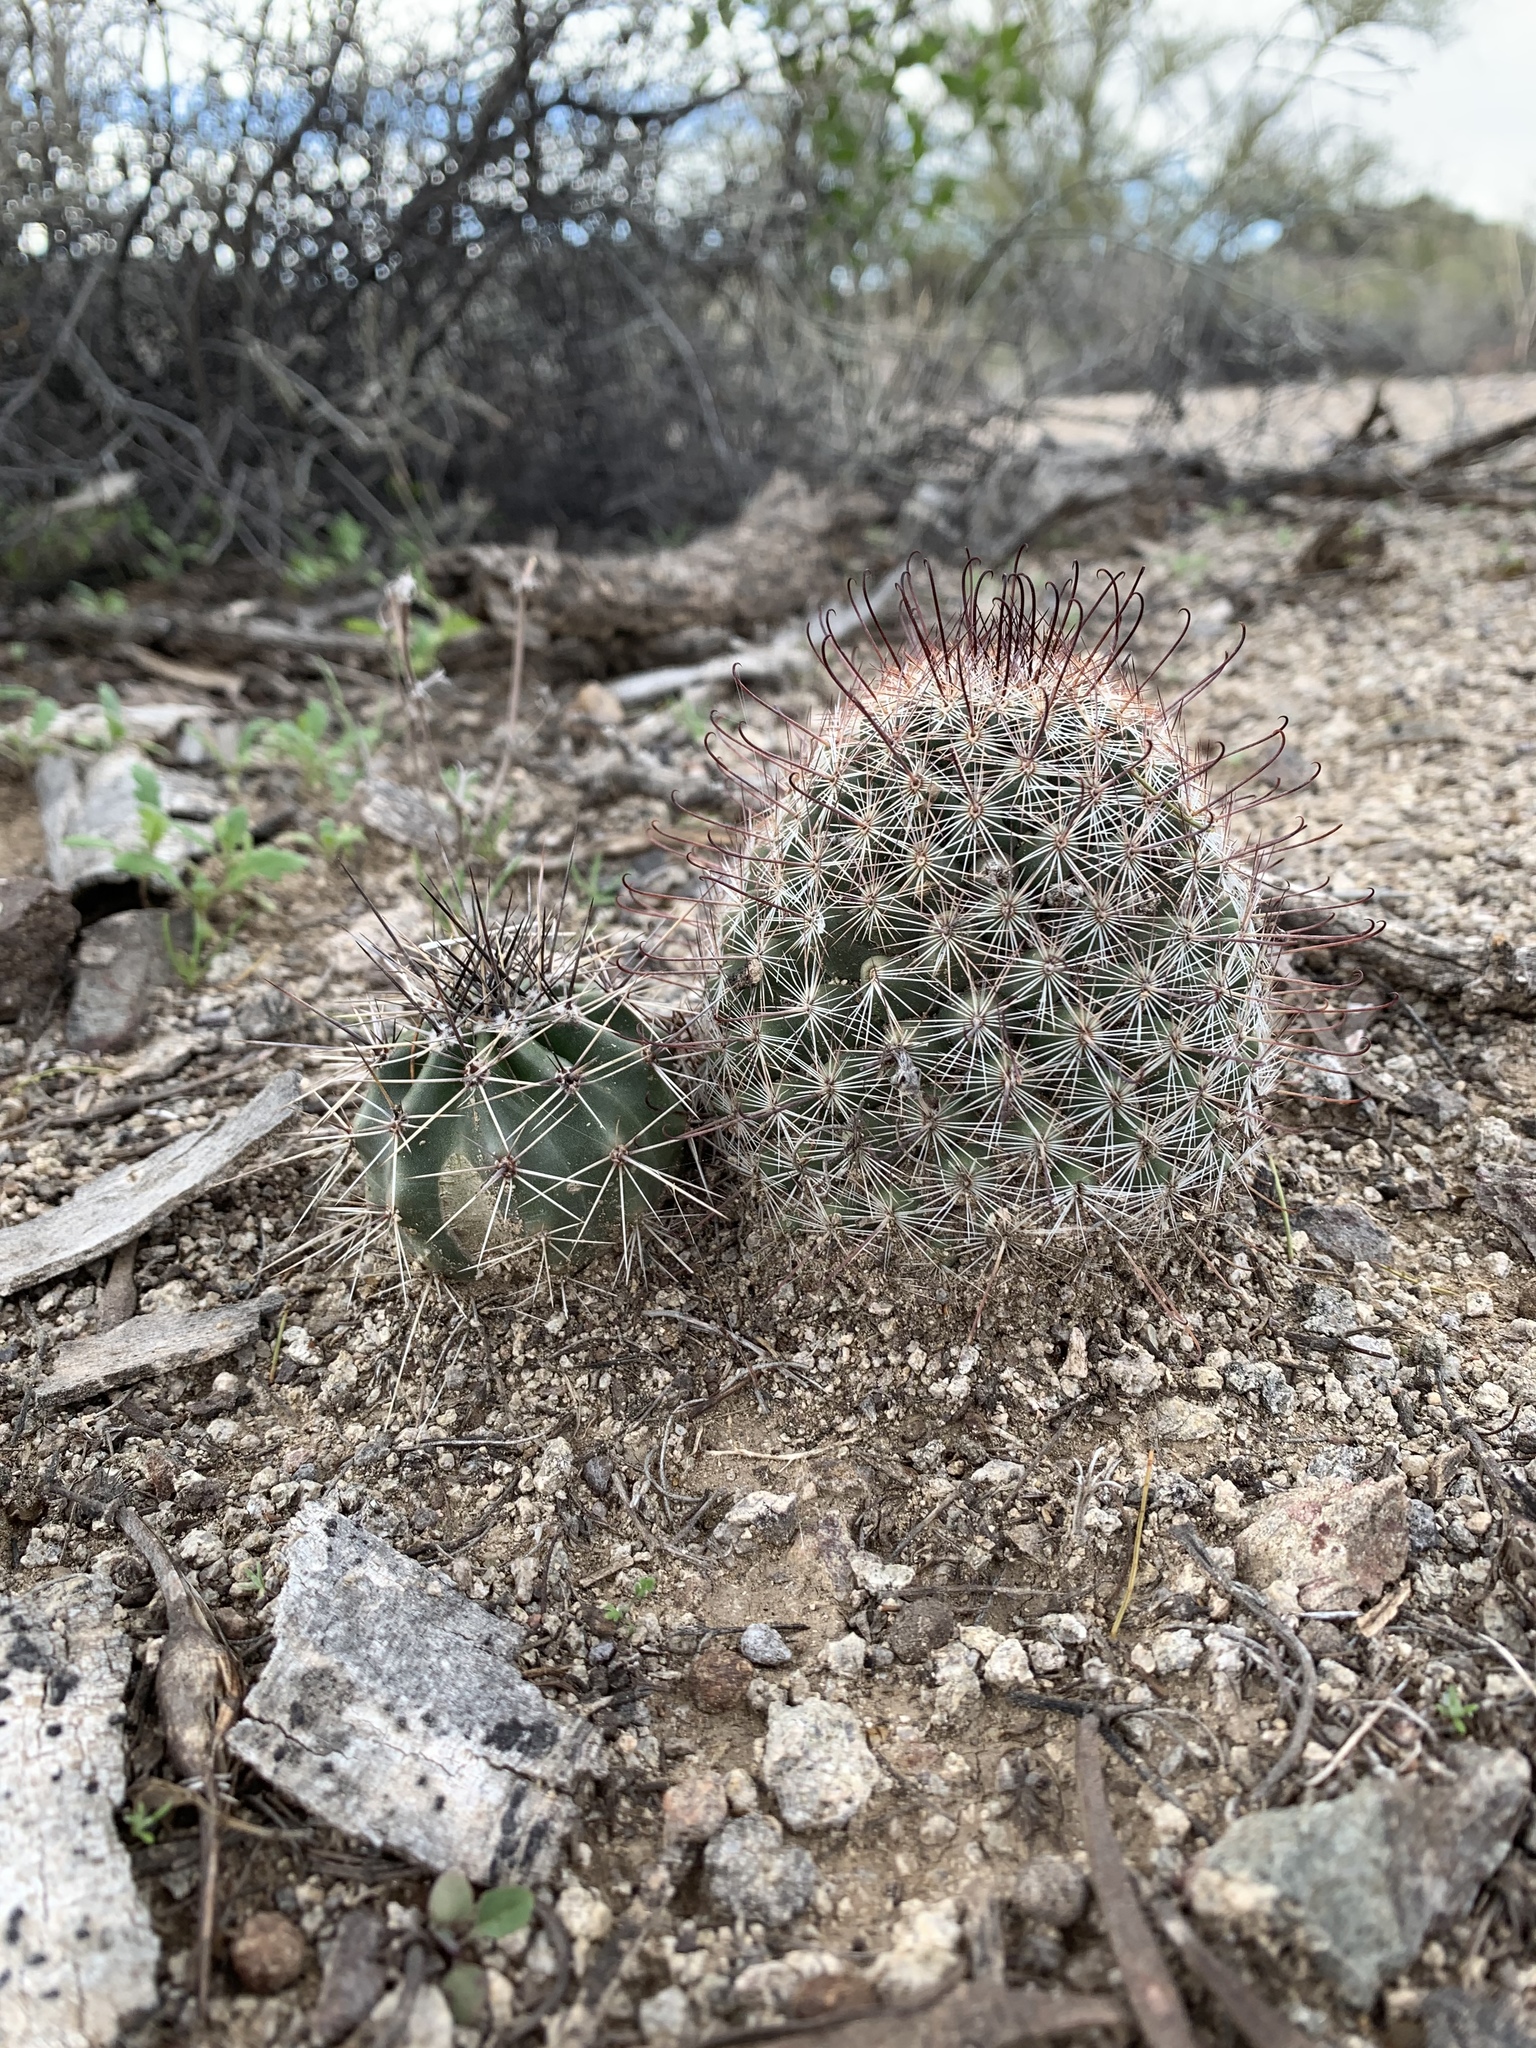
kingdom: Plantae
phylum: Tracheophyta
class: Magnoliopsida
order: Caryophyllales
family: Cactaceae
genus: Cochemiea
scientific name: Cochemiea grahamii
